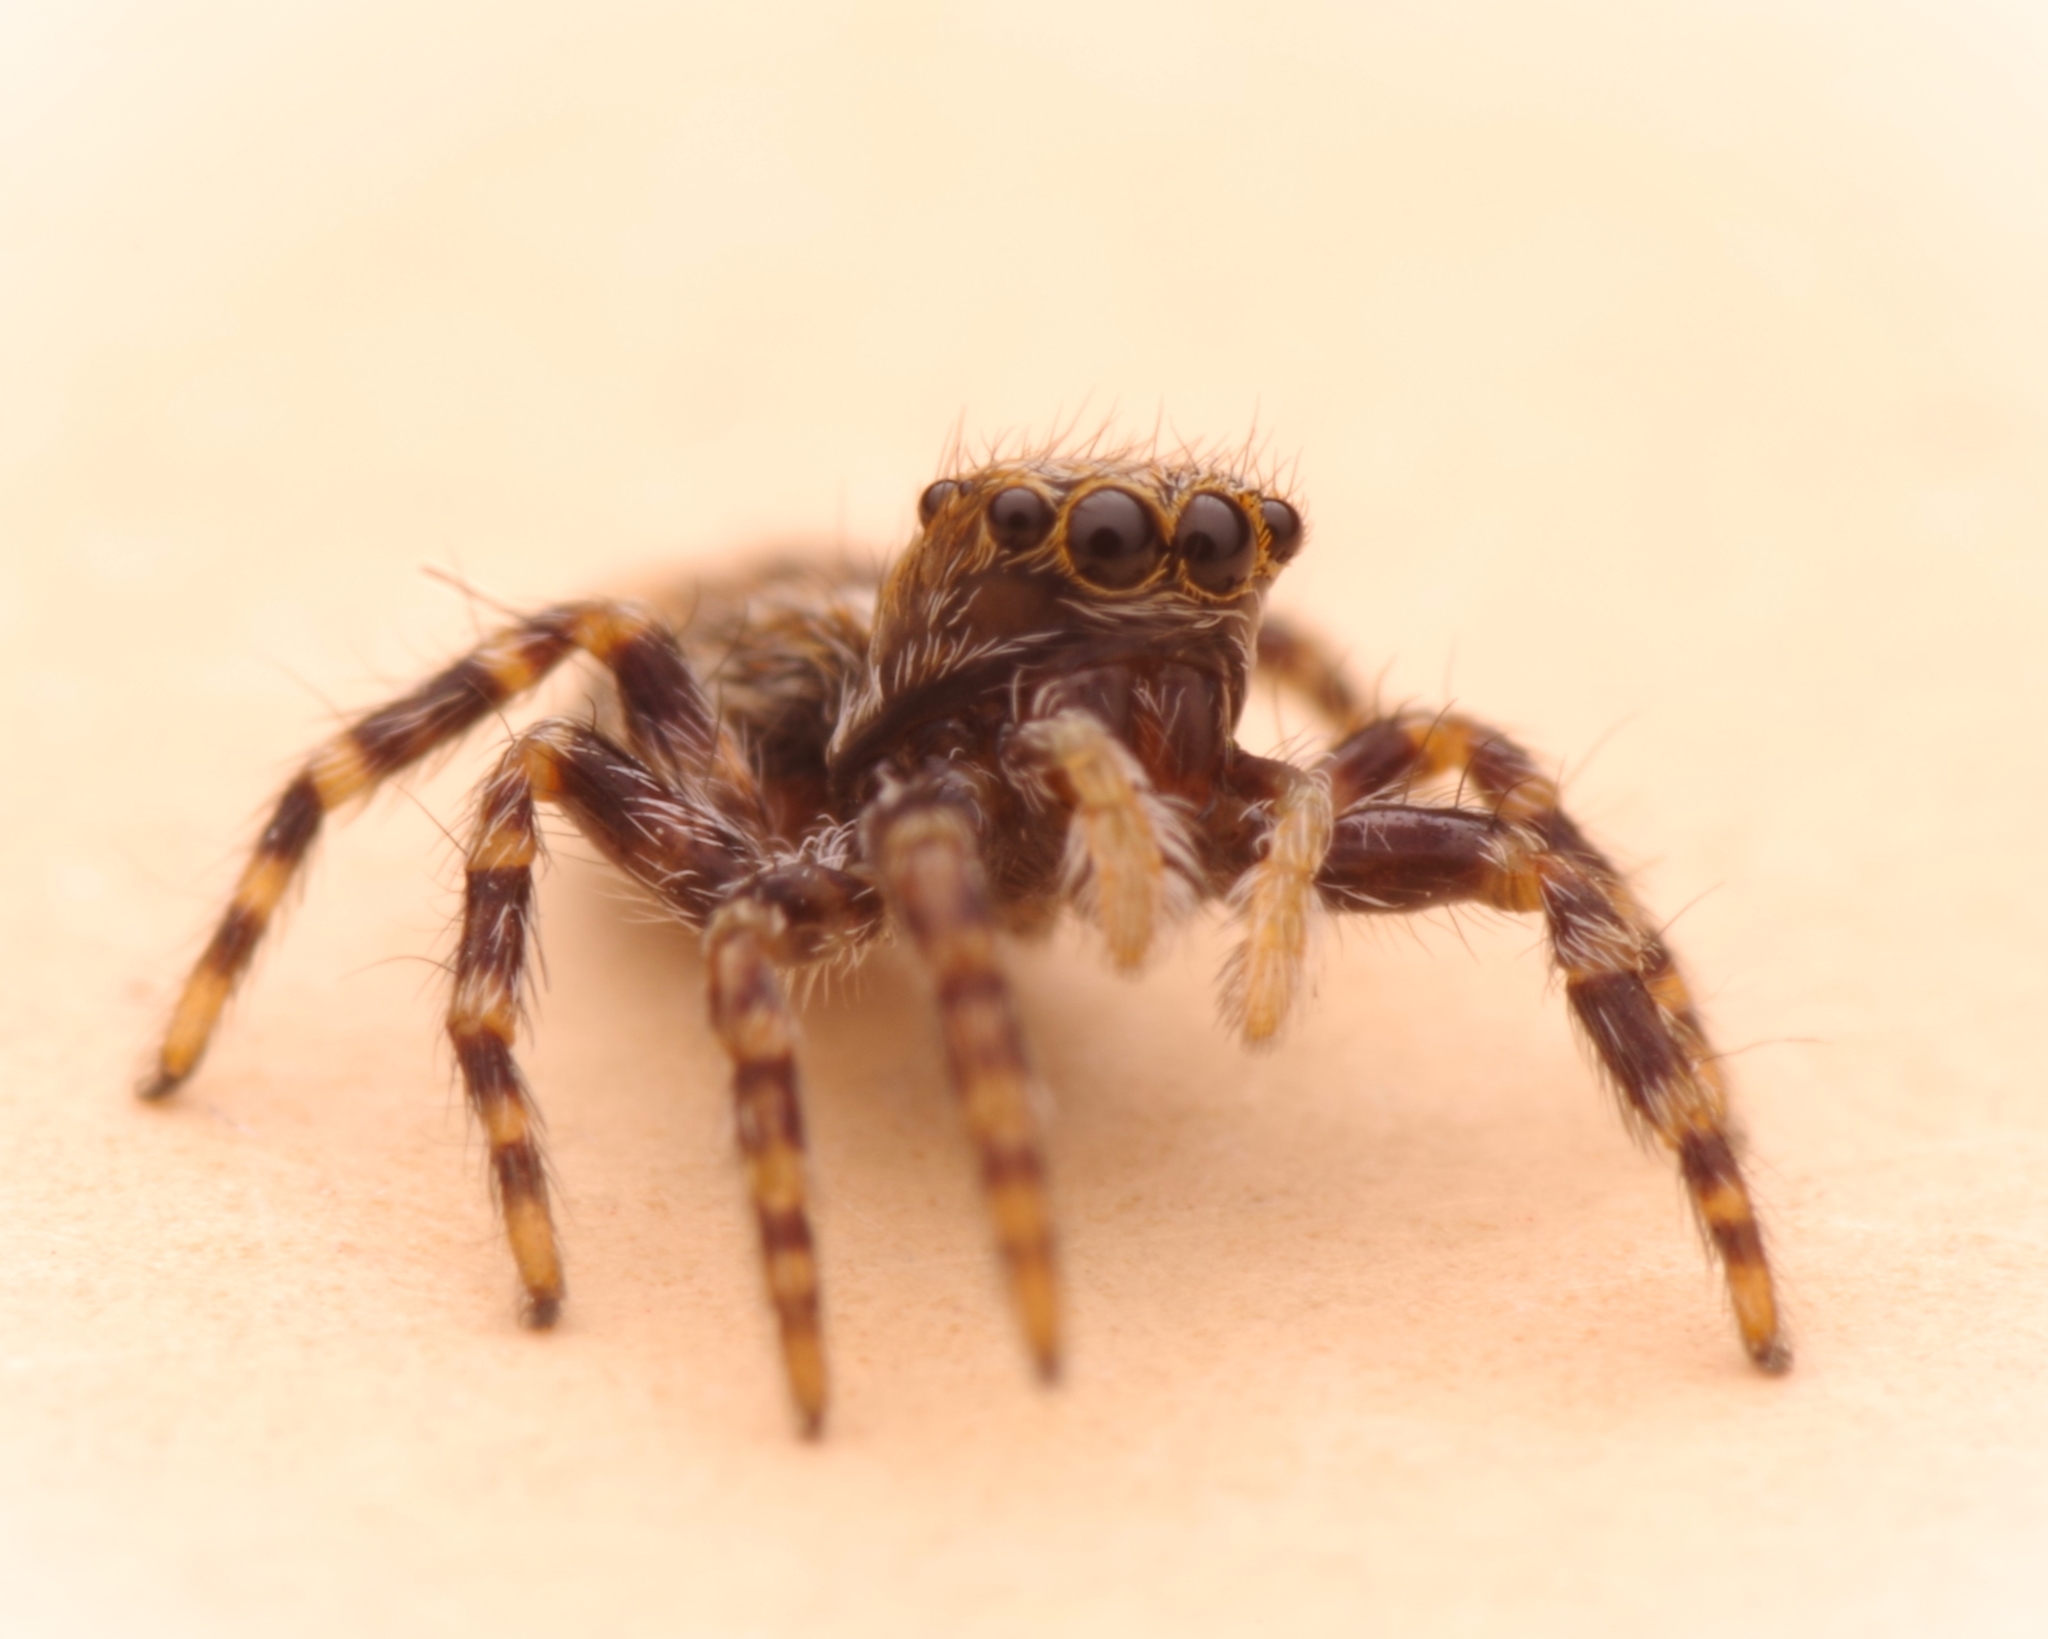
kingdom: Animalia
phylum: Arthropoda
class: Arachnida
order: Araneae
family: Salticidae
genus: Pseudeuophrys
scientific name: Pseudeuophrys lanigera
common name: Jumping spider
